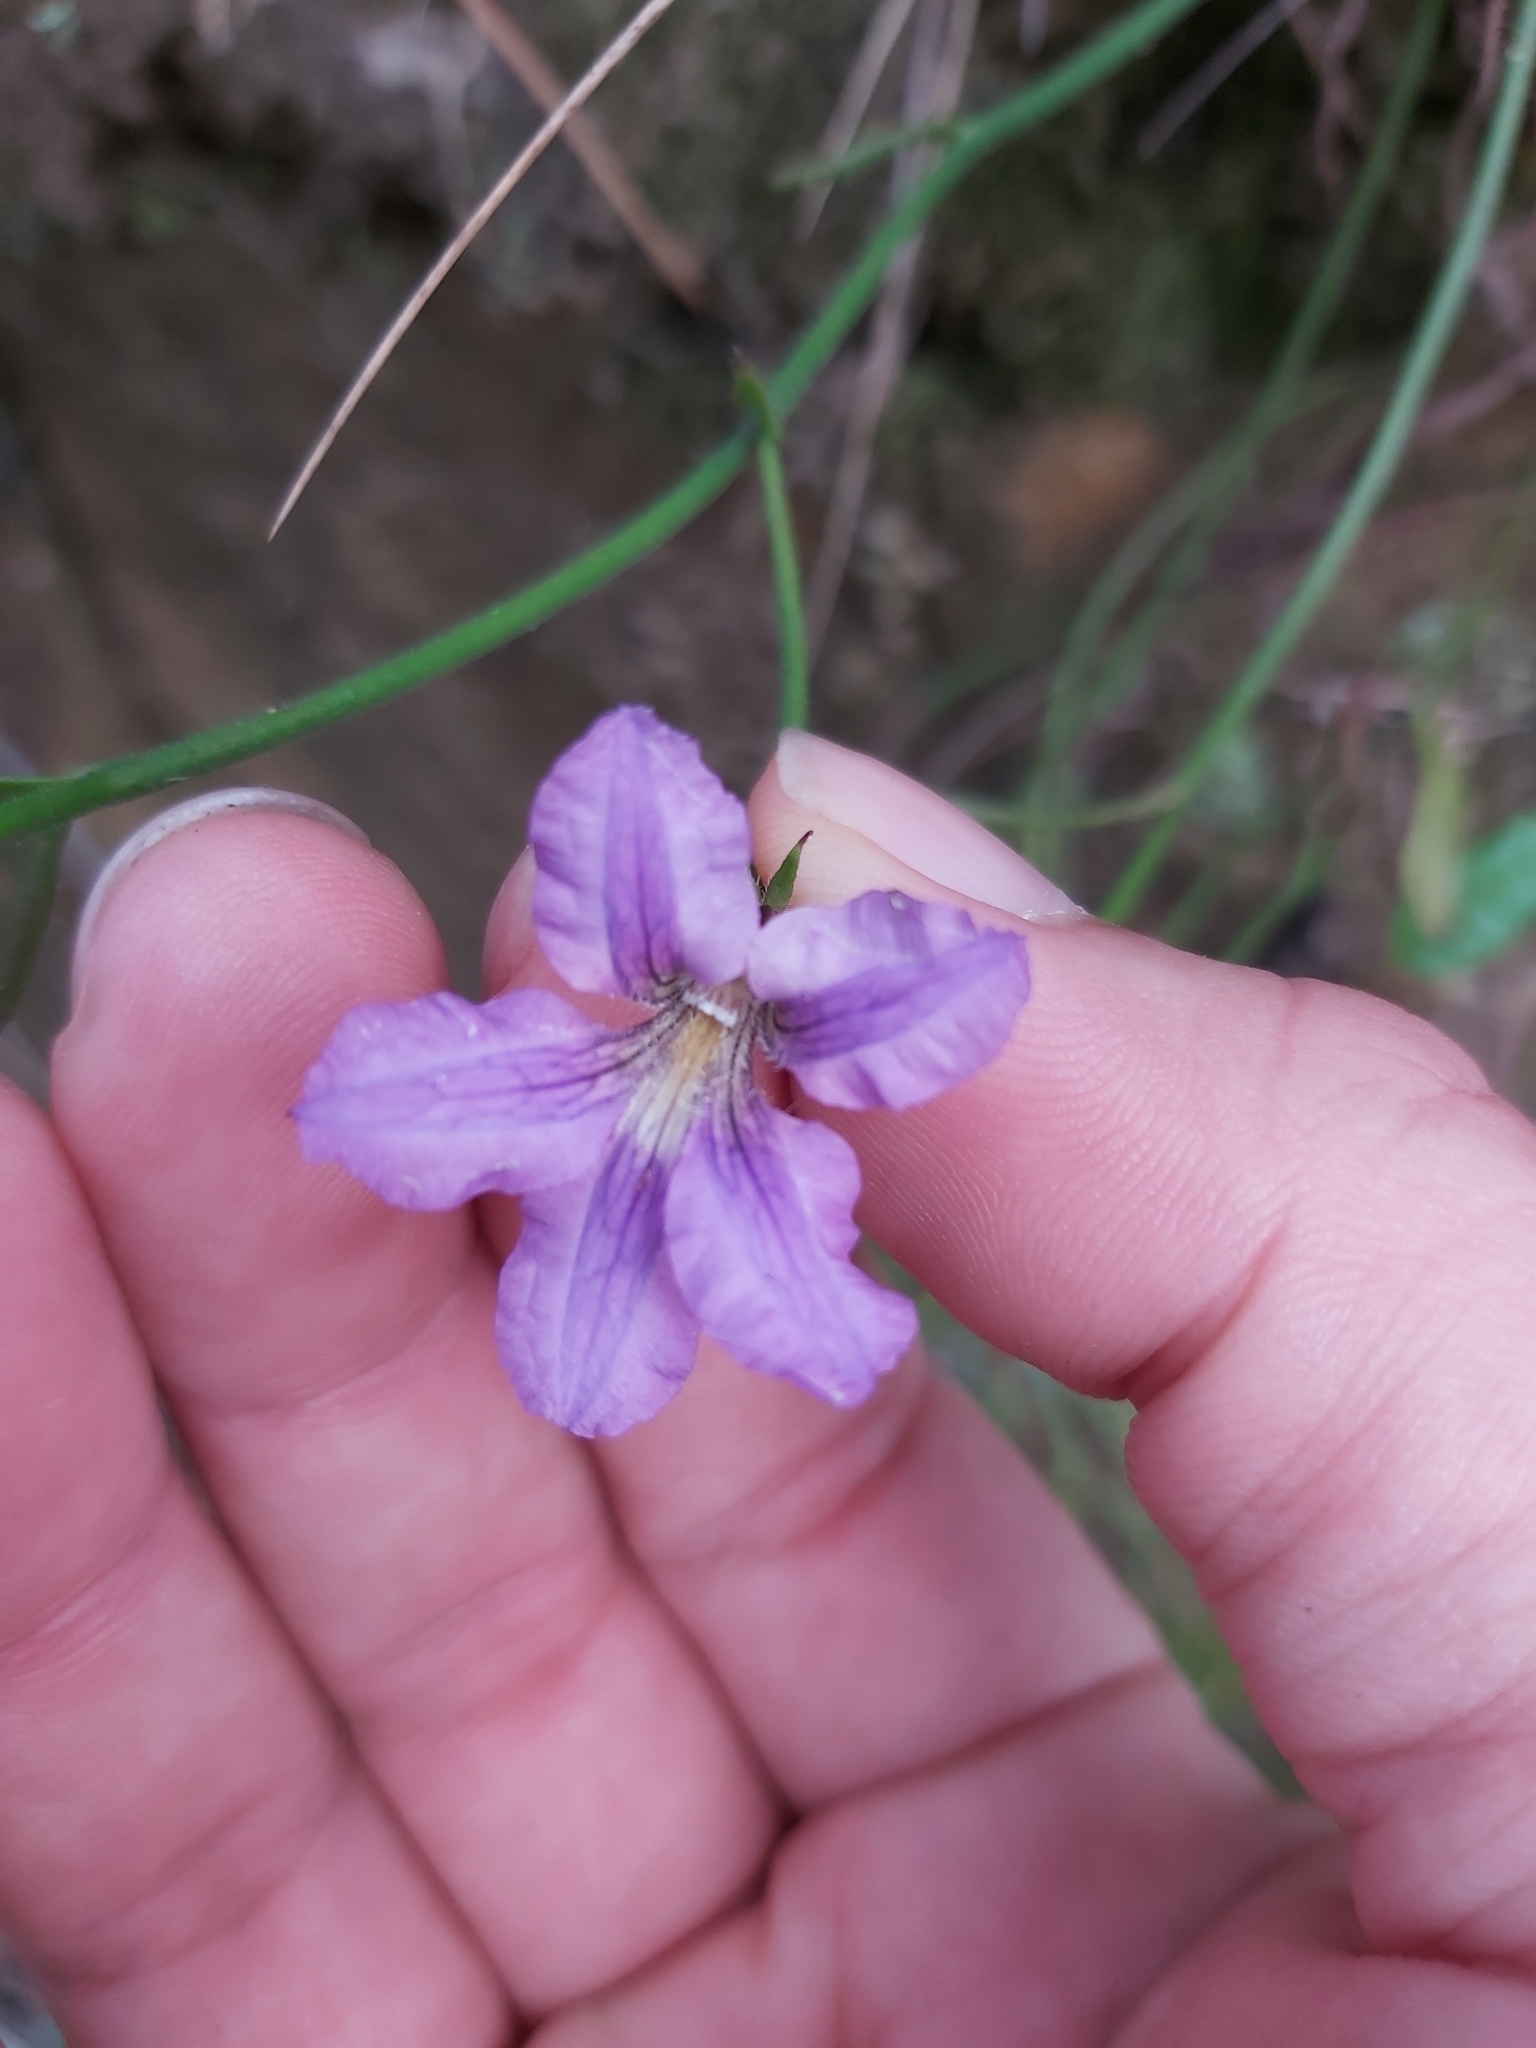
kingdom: Plantae
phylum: Tracheophyta
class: Magnoliopsida
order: Asterales
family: Goodeniaceae
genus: Scaevola
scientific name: Scaevola ramosissima
